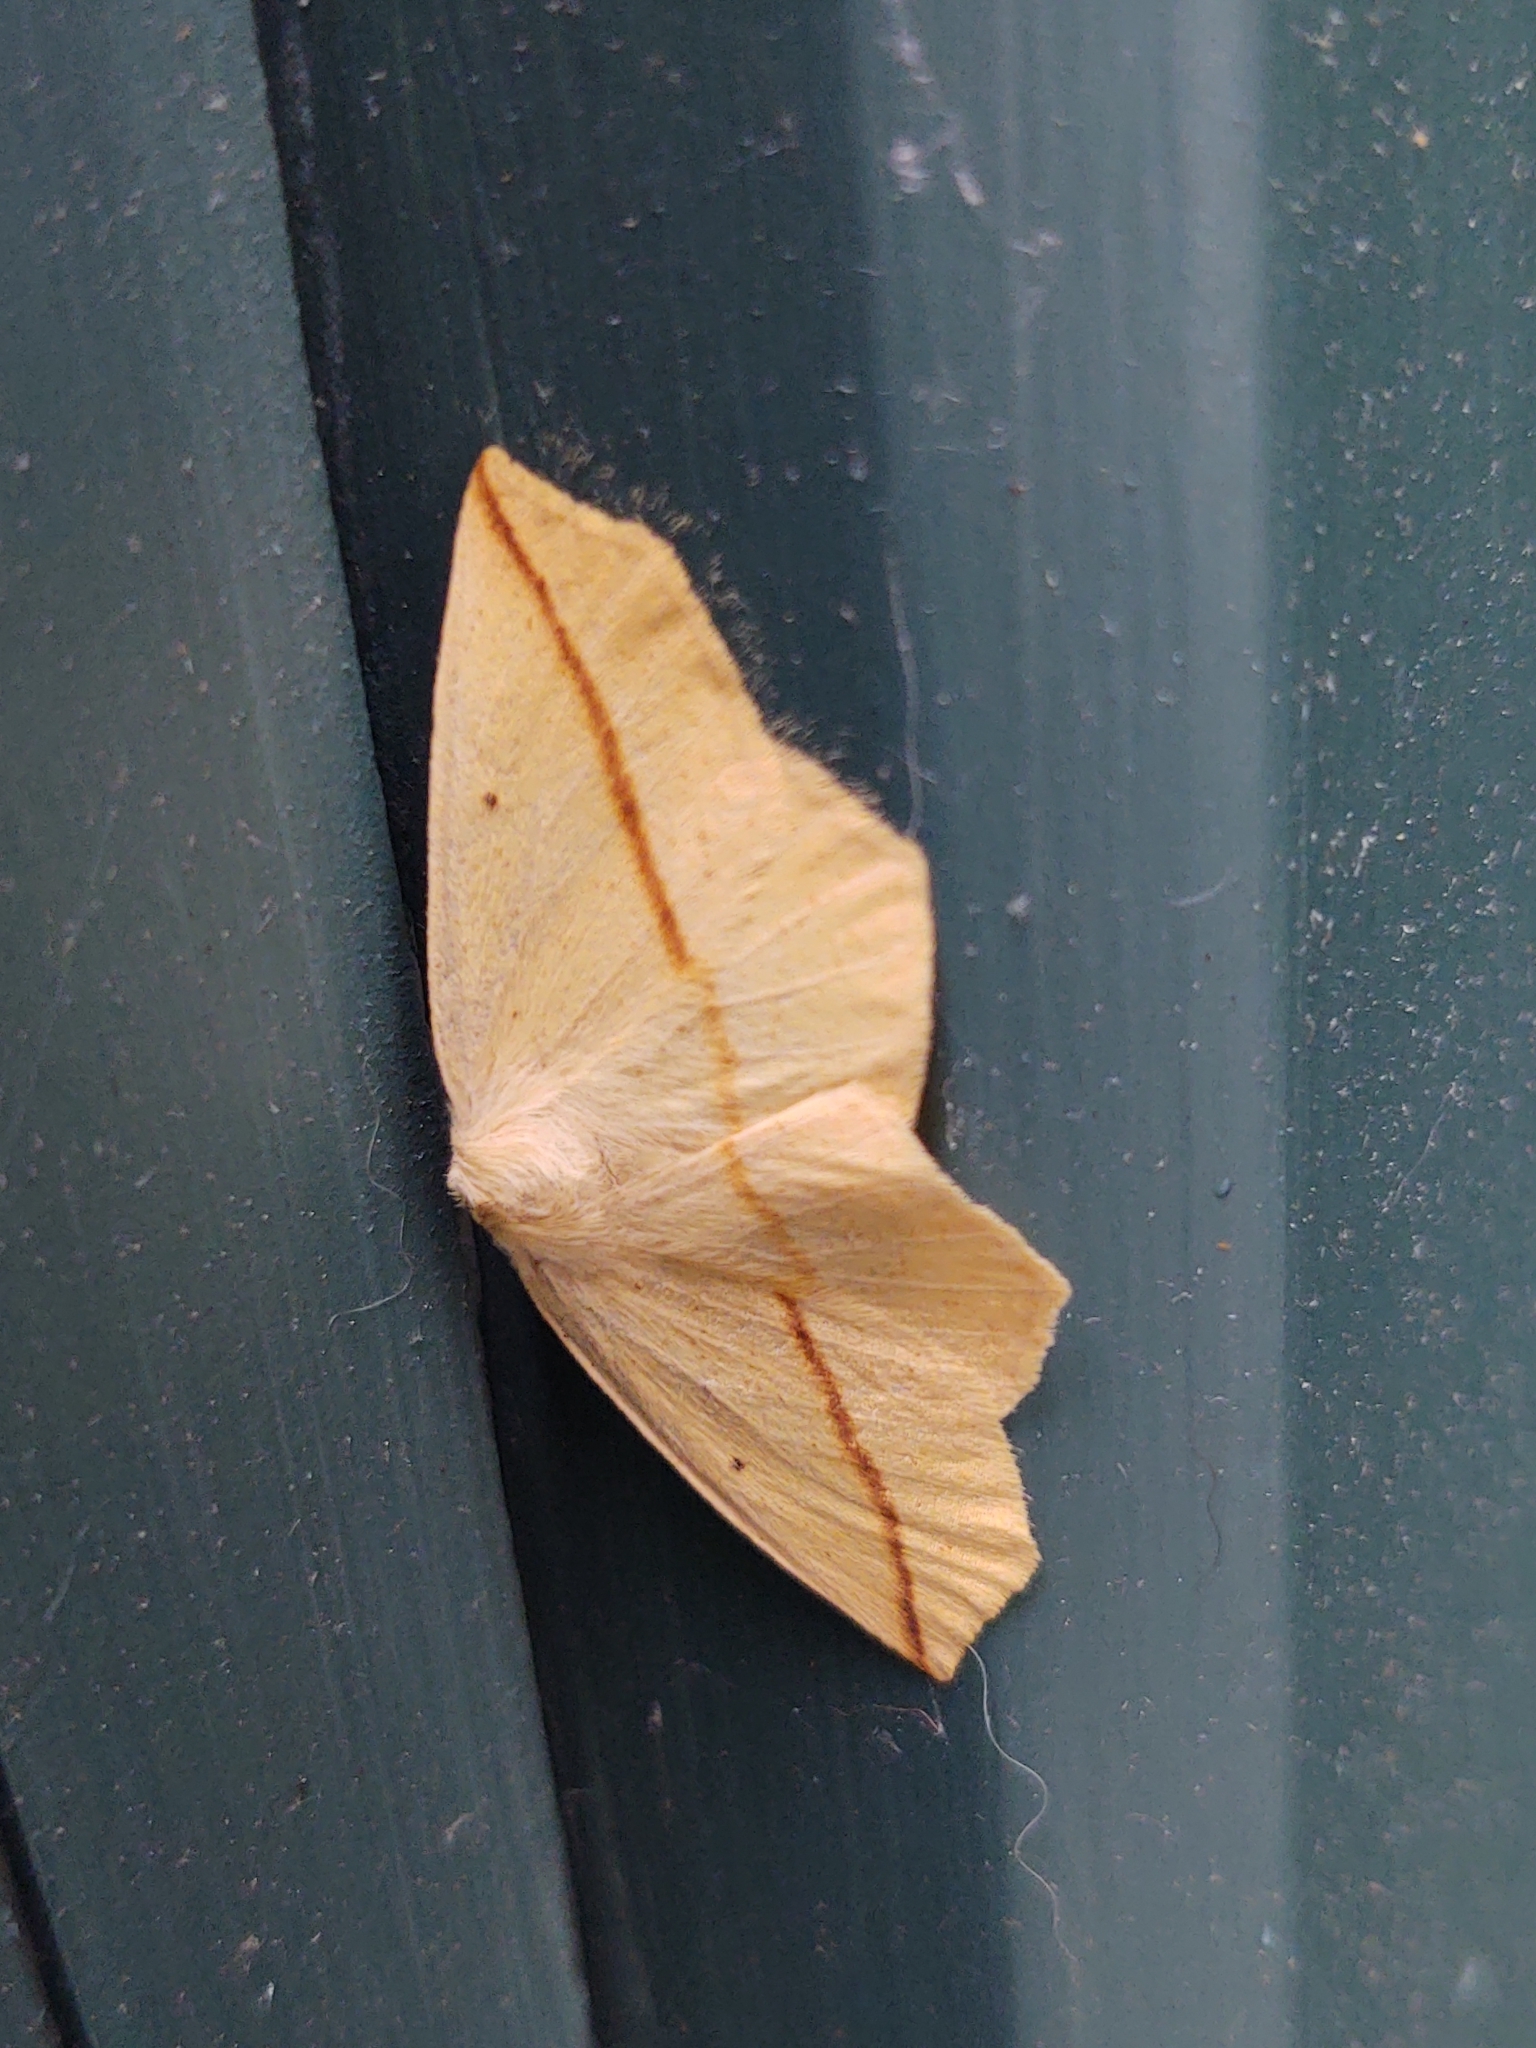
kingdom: Animalia
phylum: Arthropoda
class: Insecta
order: Lepidoptera
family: Geometridae
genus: Tetracis
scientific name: Tetracis crocallata
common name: Yellow slant-line
